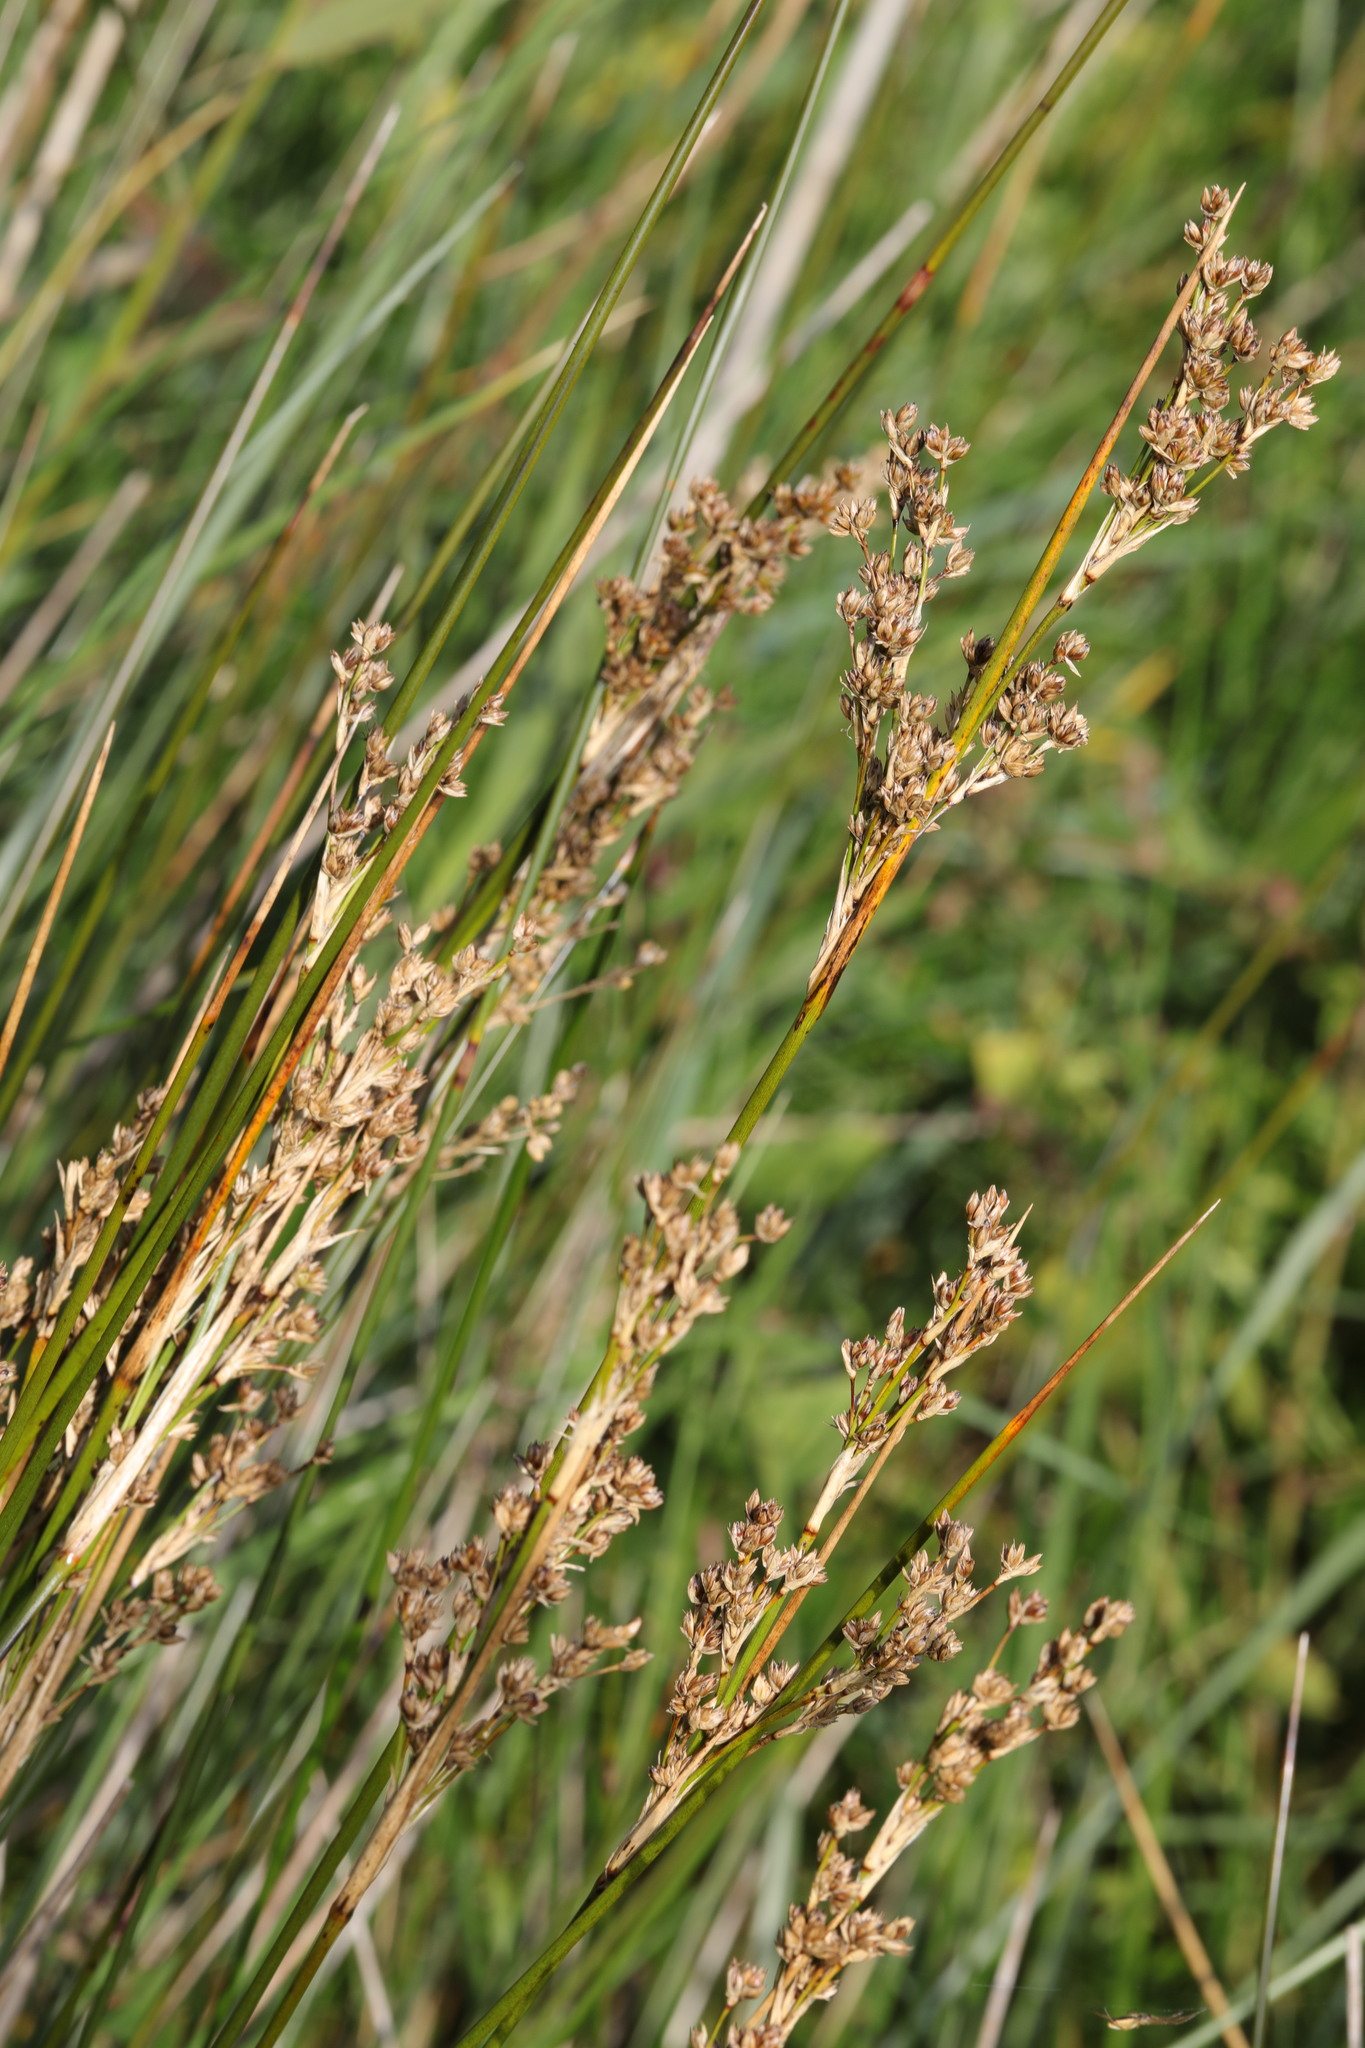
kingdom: Plantae
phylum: Tracheophyta
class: Liliopsida
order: Poales
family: Juncaceae
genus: Juncus
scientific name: Juncus maritimus
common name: Sea rush
